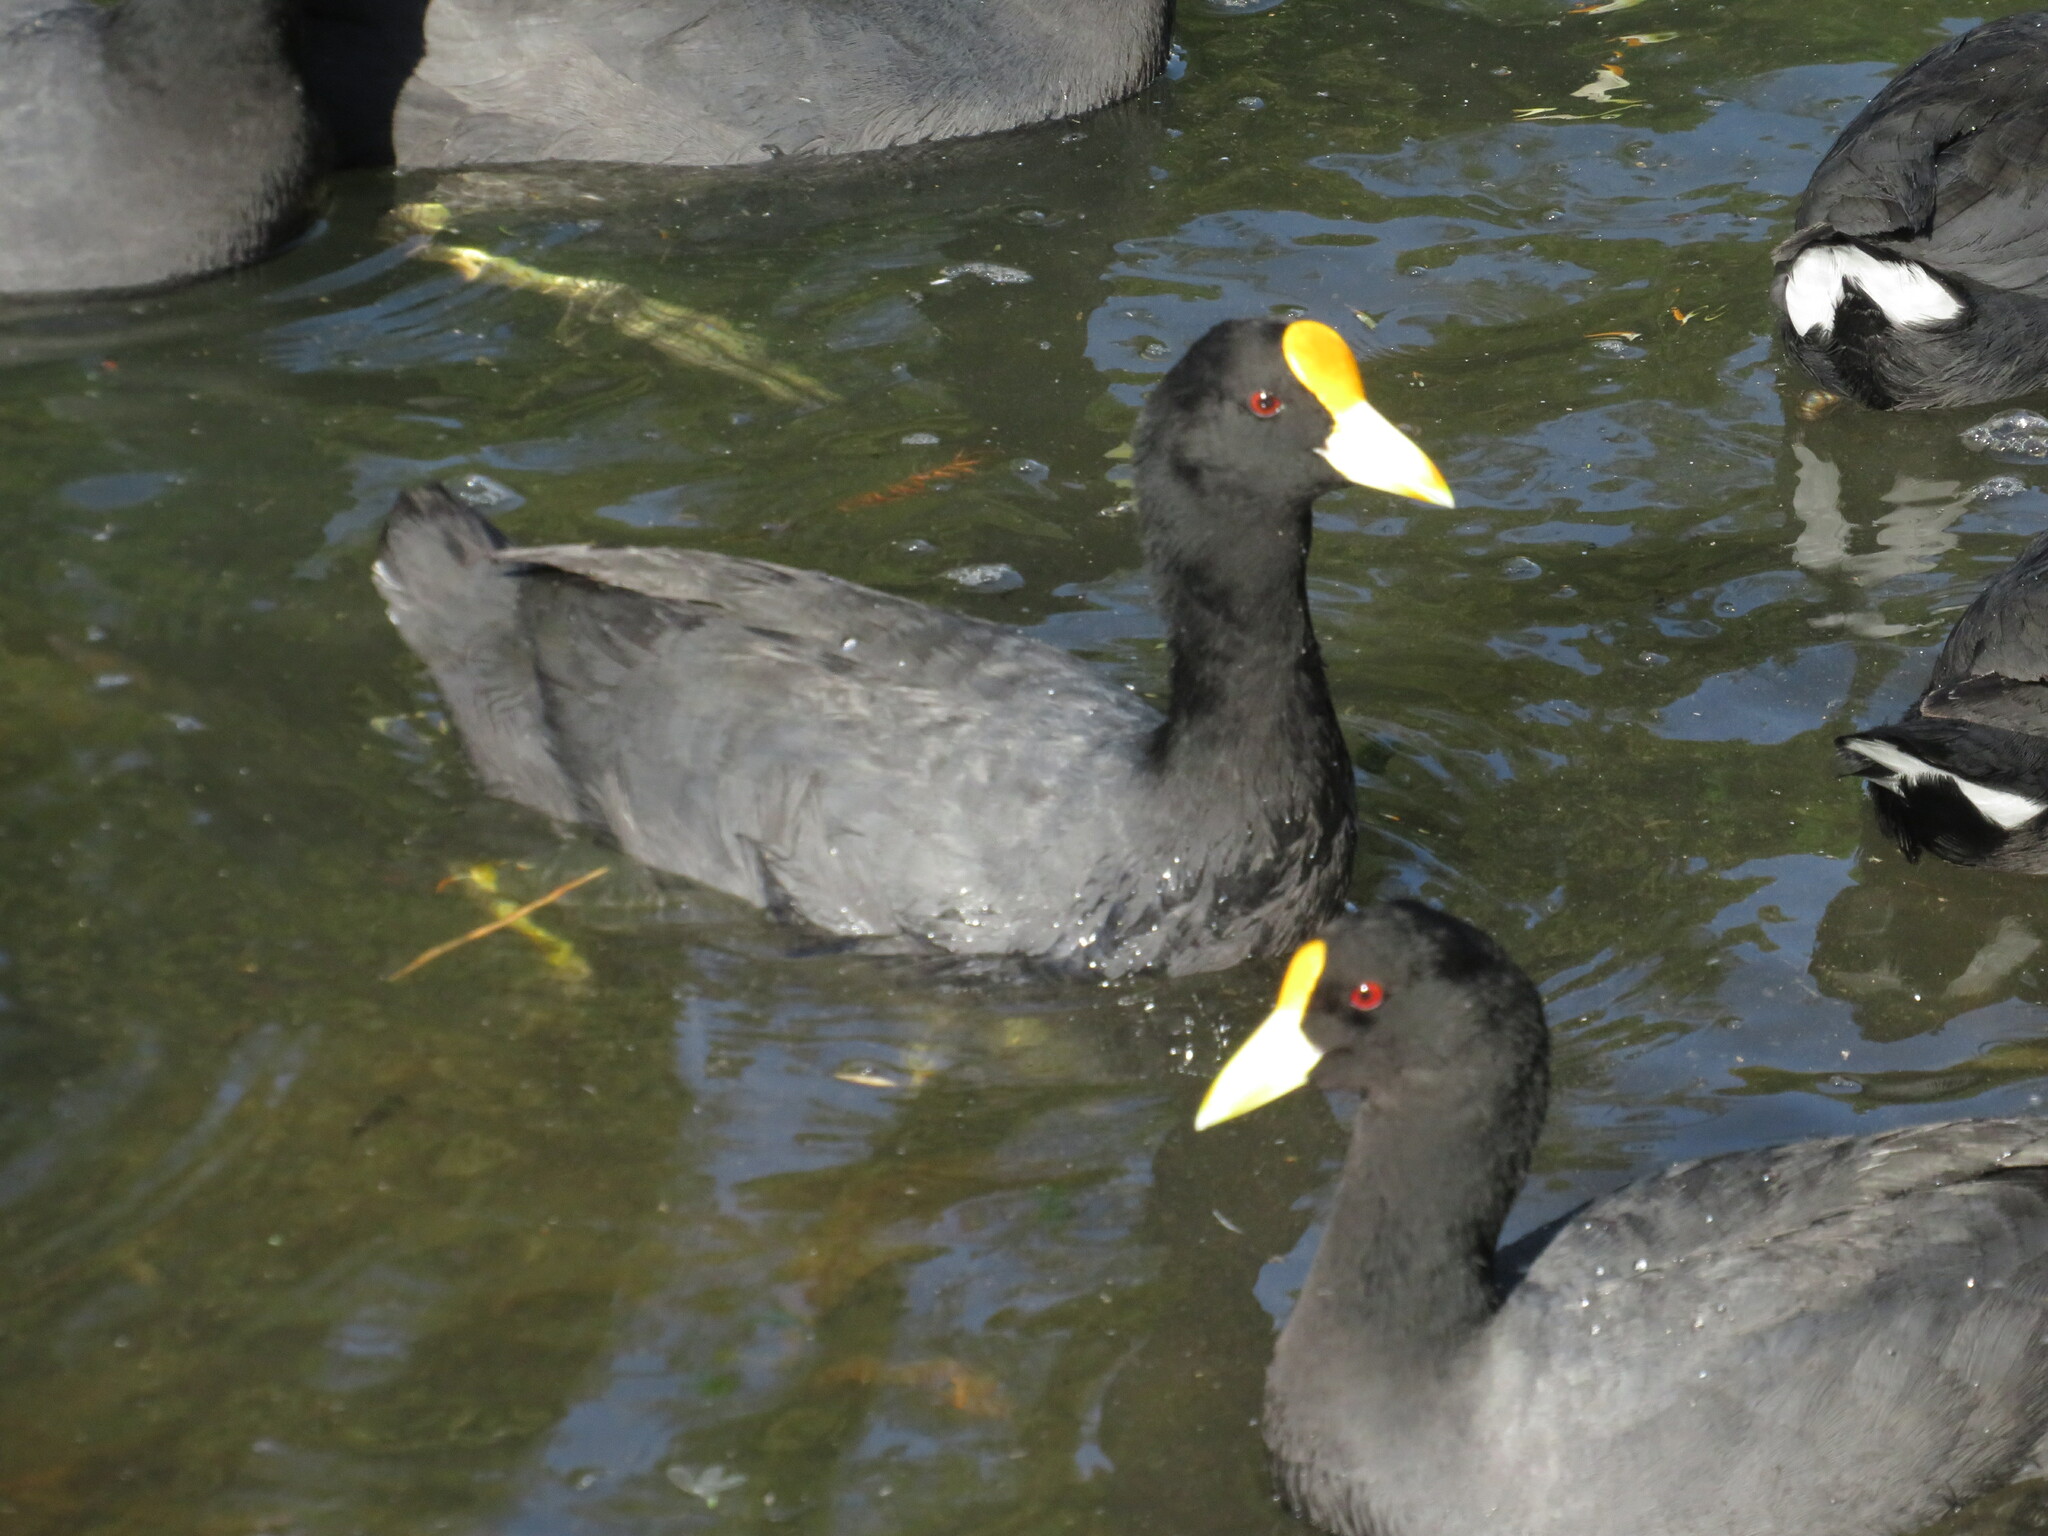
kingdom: Animalia
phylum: Chordata
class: Aves
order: Gruiformes
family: Rallidae
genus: Fulica
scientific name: Fulica leucoptera
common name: White-winged coot
